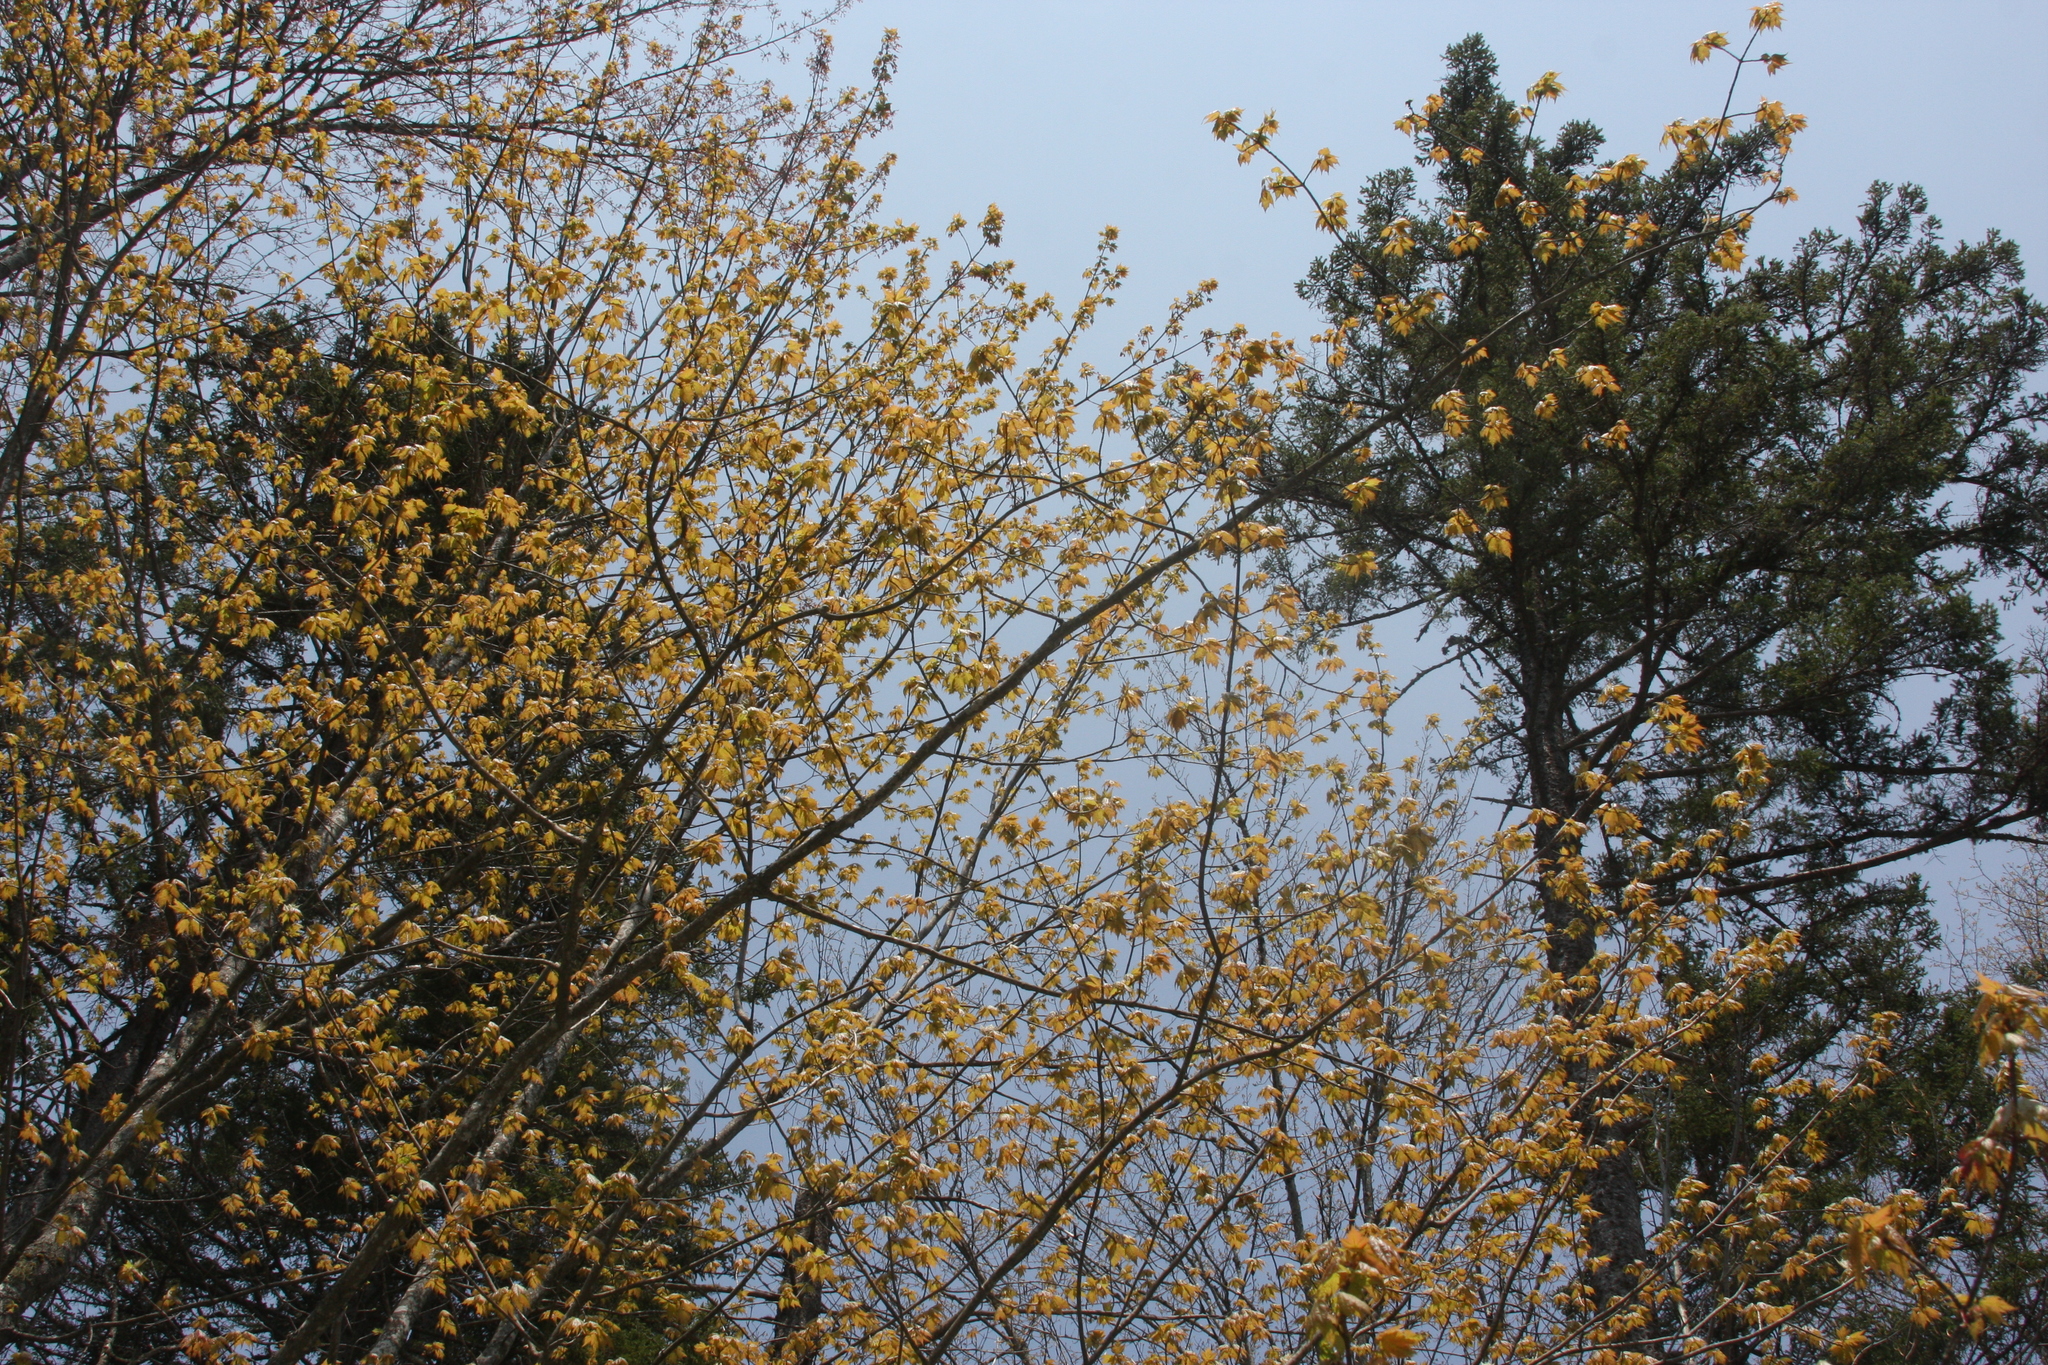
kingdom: Plantae
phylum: Tracheophyta
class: Magnoliopsida
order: Sapindales
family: Sapindaceae
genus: Acer
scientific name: Acer rubrum
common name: Red maple
